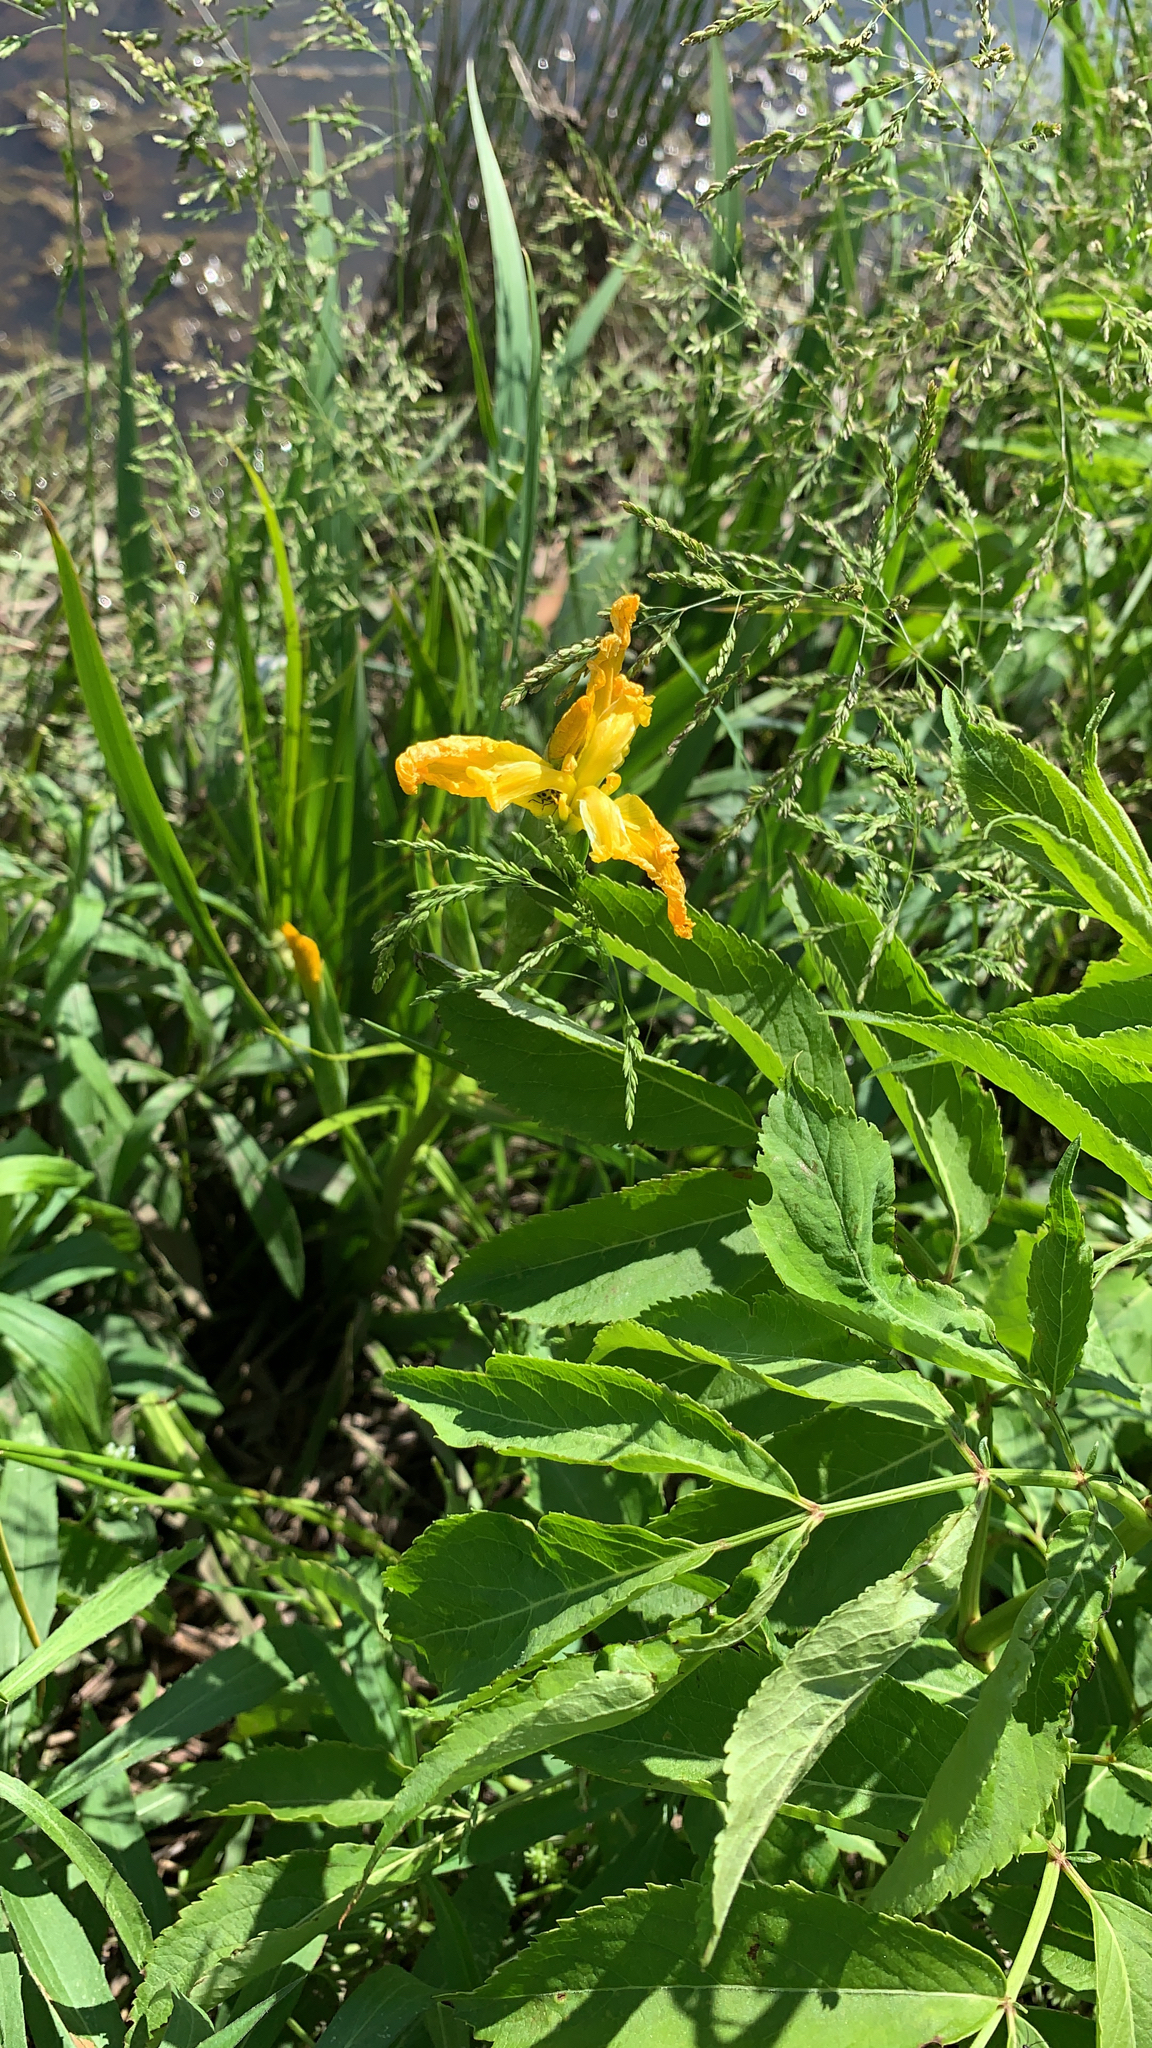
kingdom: Plantae
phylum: Tracheophyta
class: Liliopsida
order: Asparagales
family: Iridaceae
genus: Iris
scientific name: Iris pseudacorus
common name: Yellow flag
